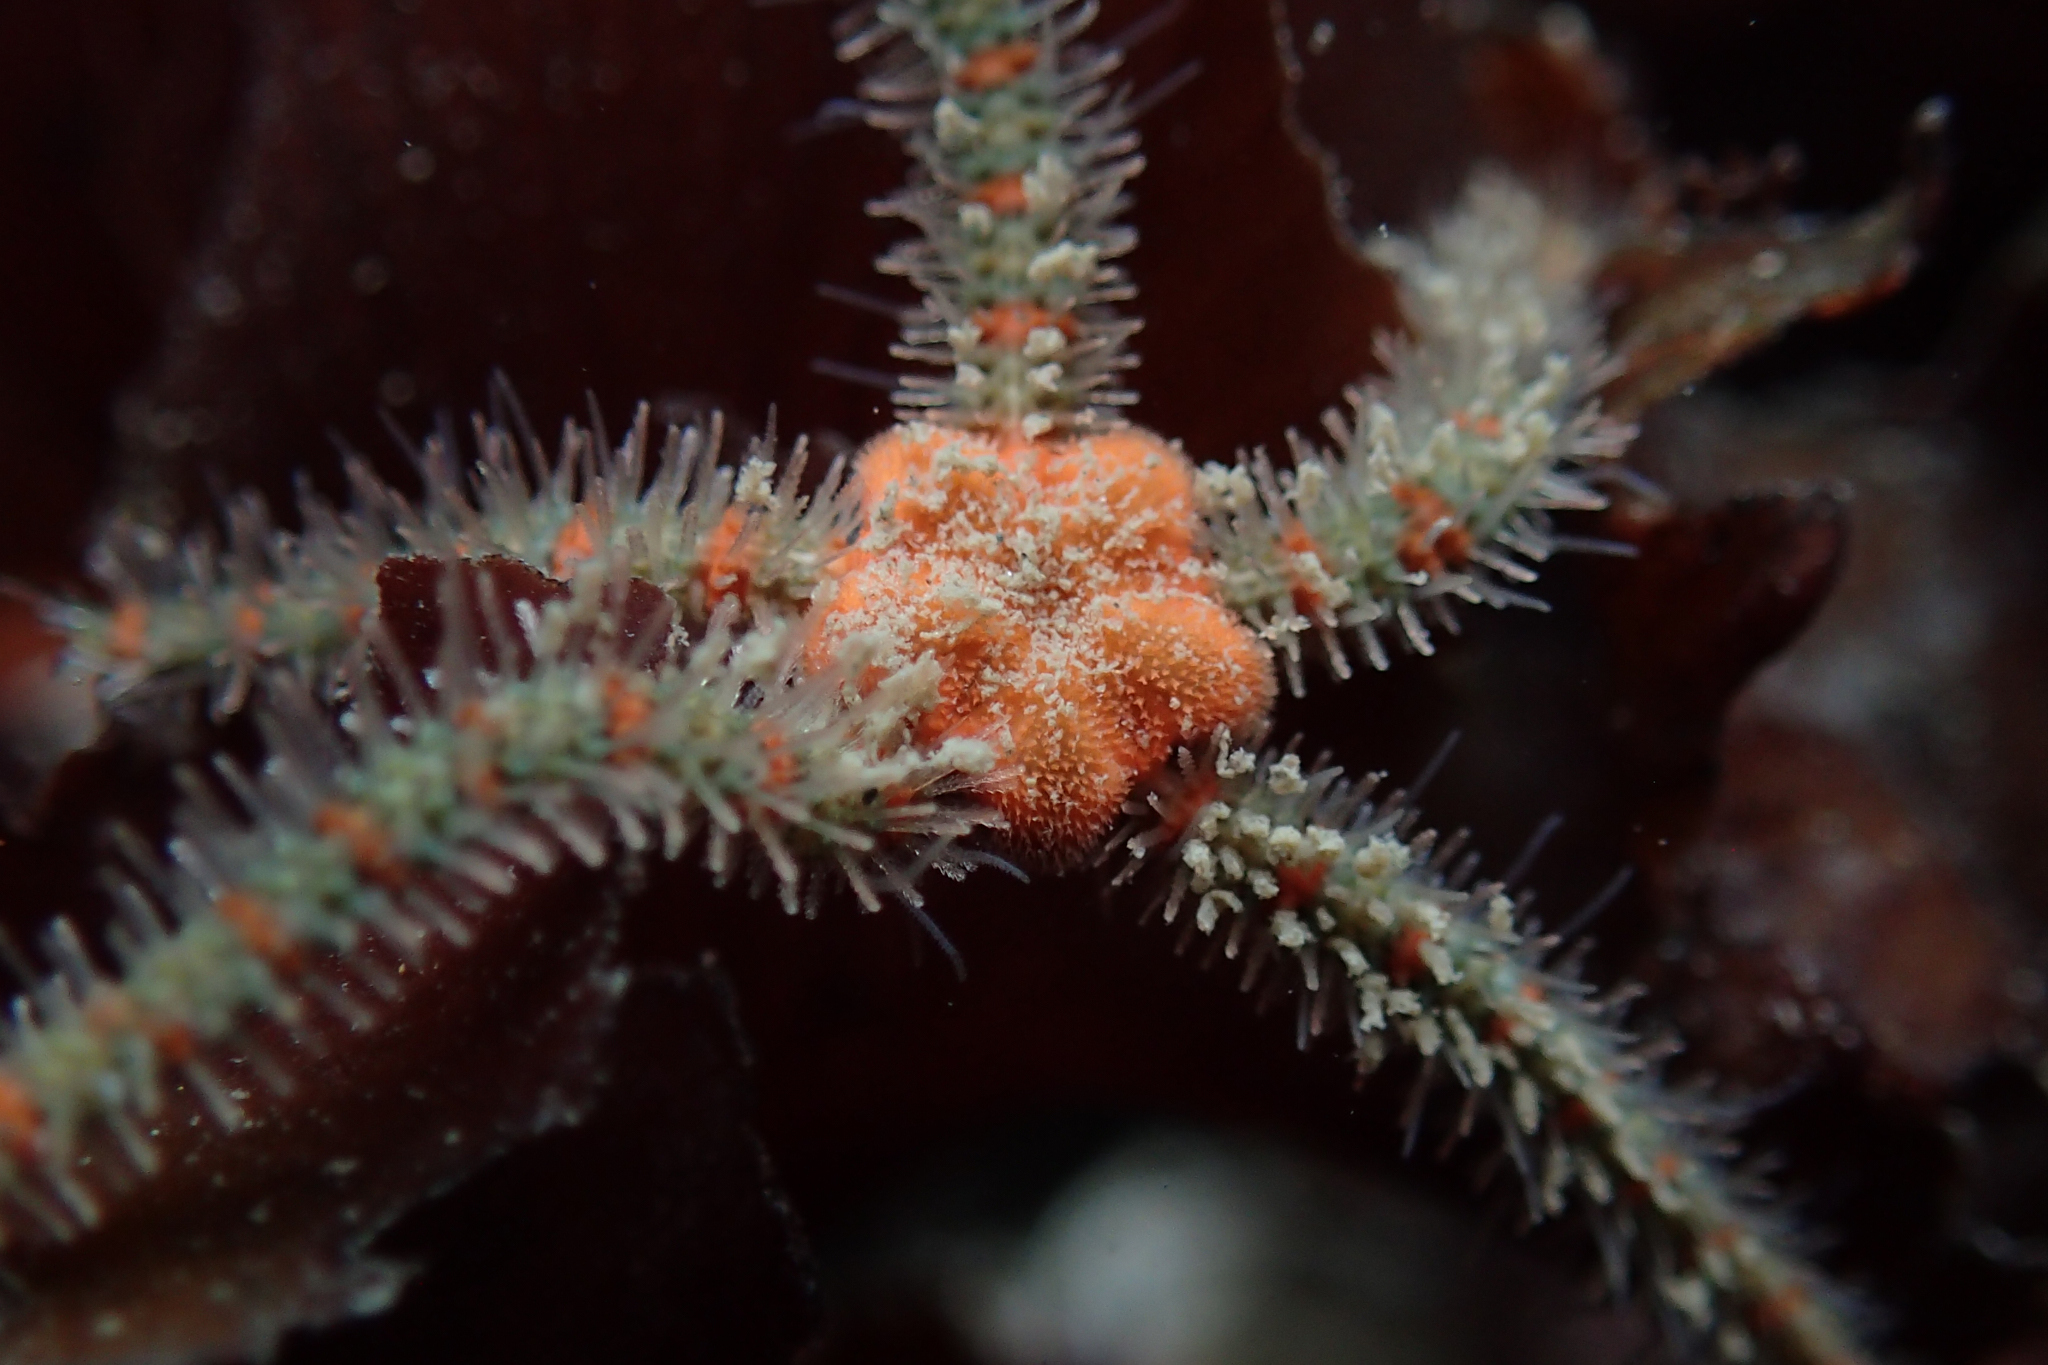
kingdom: Animalia
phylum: Echinodermata
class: Ophiuroidea
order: Amphilepidida
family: Ophiotrichidae
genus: Ophiothrix
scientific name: Ophiothrix spiculata
